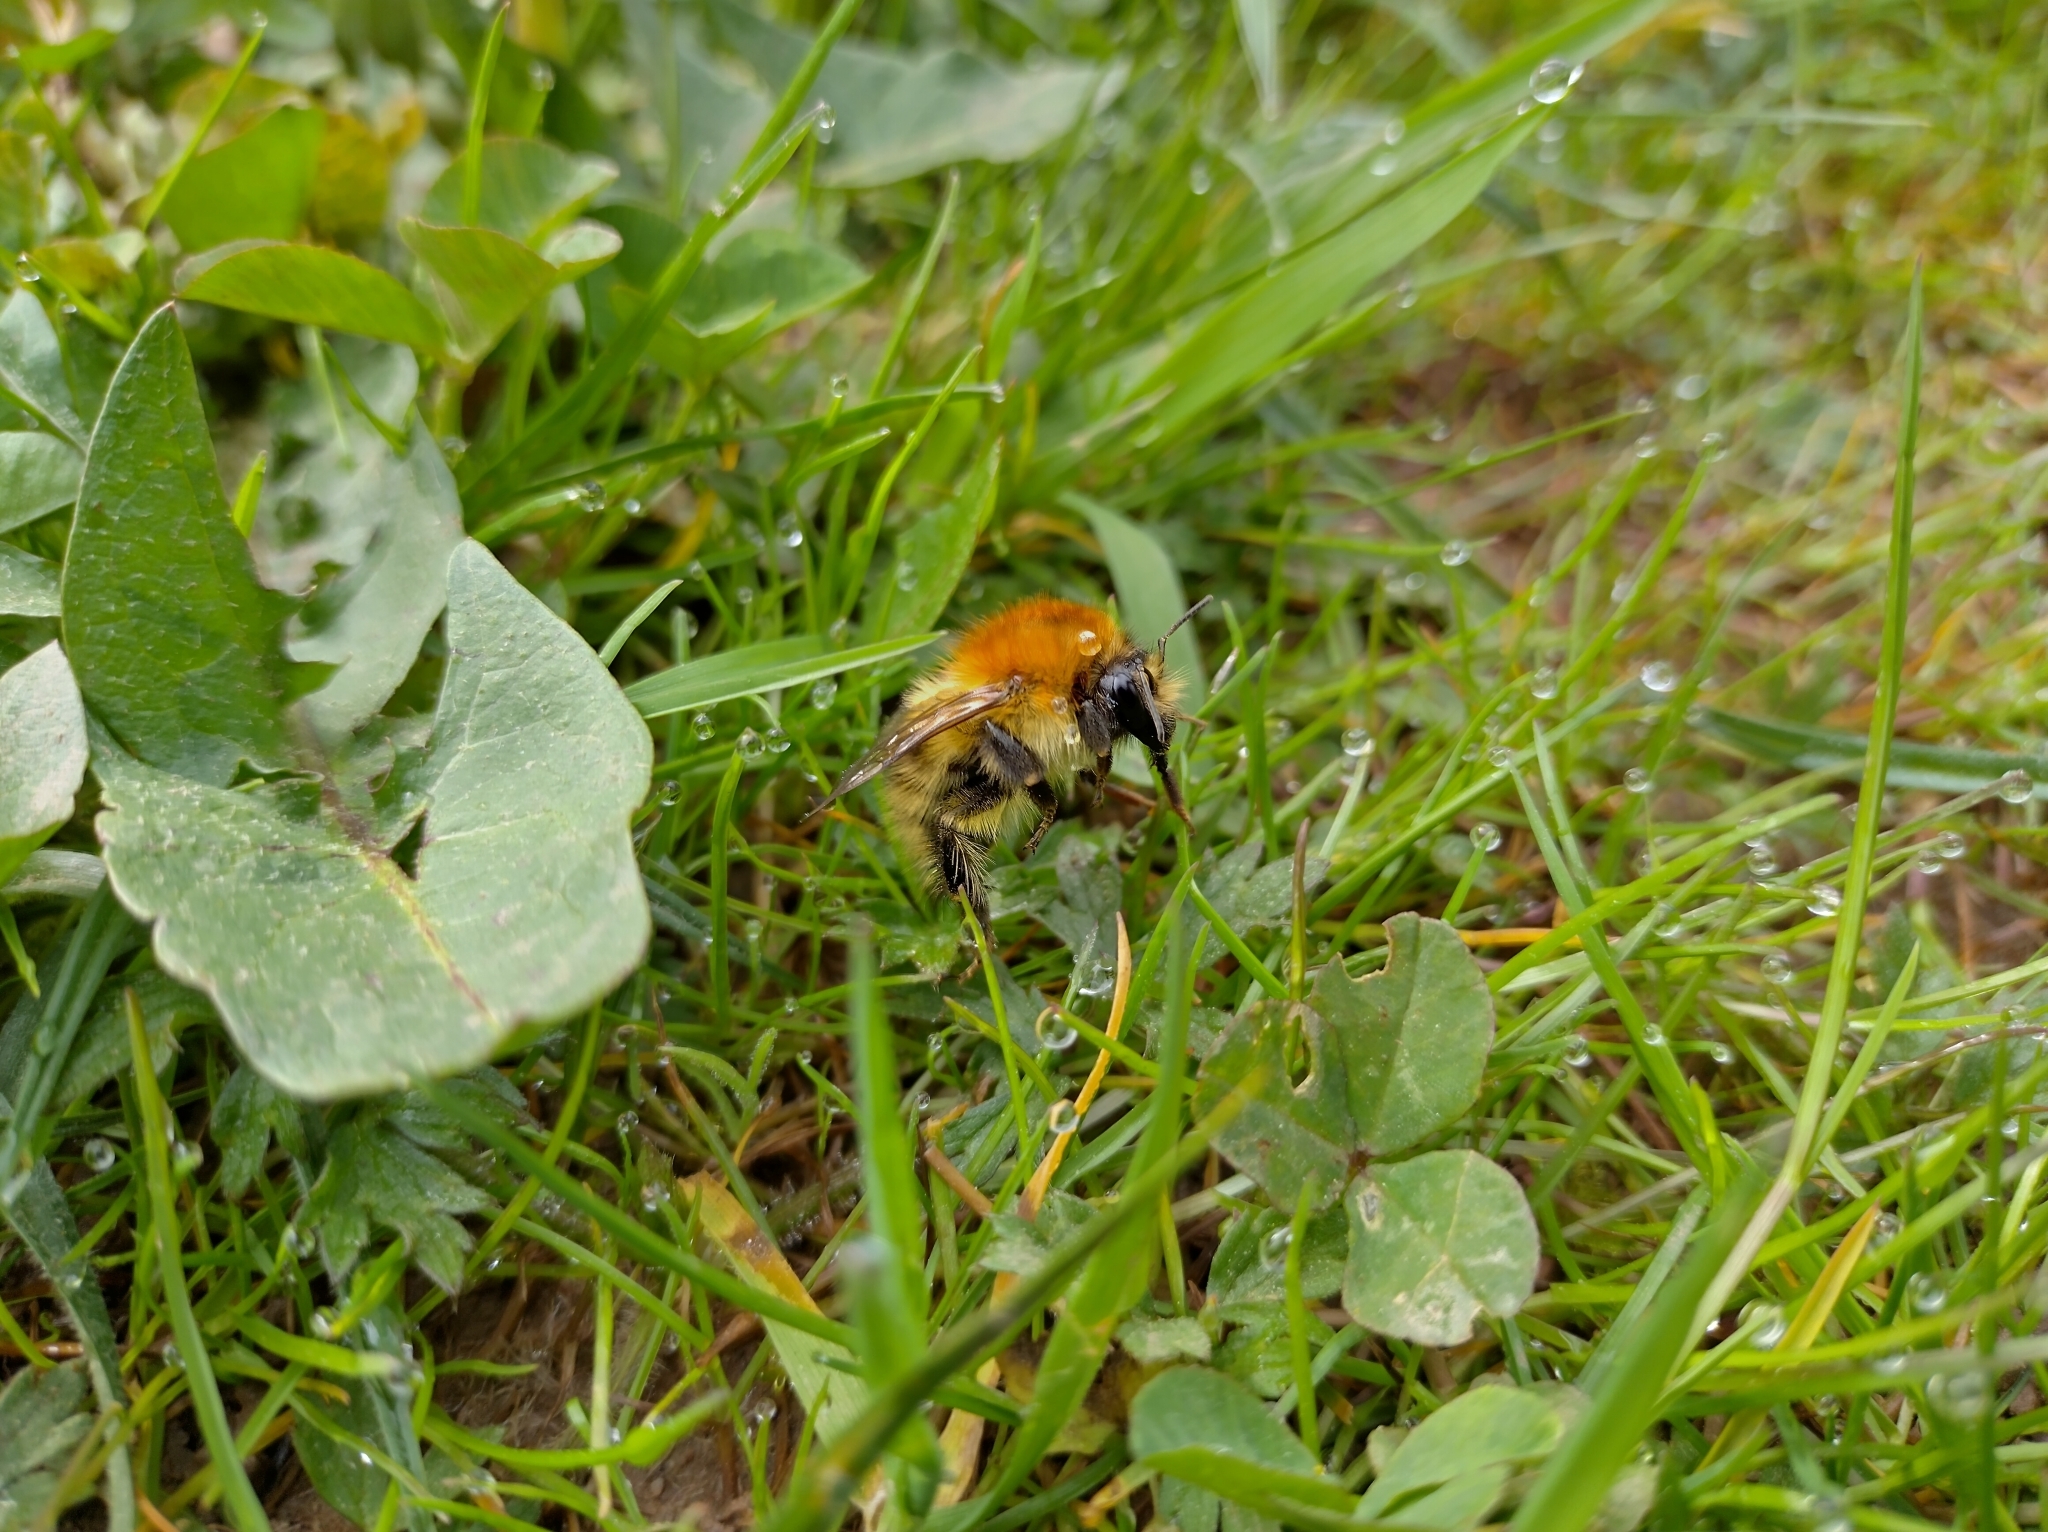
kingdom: Animalia
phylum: Arthropoda
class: Insecta
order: Hymenoptera
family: Apidae
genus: Bombus
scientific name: Bombus pascuorum
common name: Common carder bee
